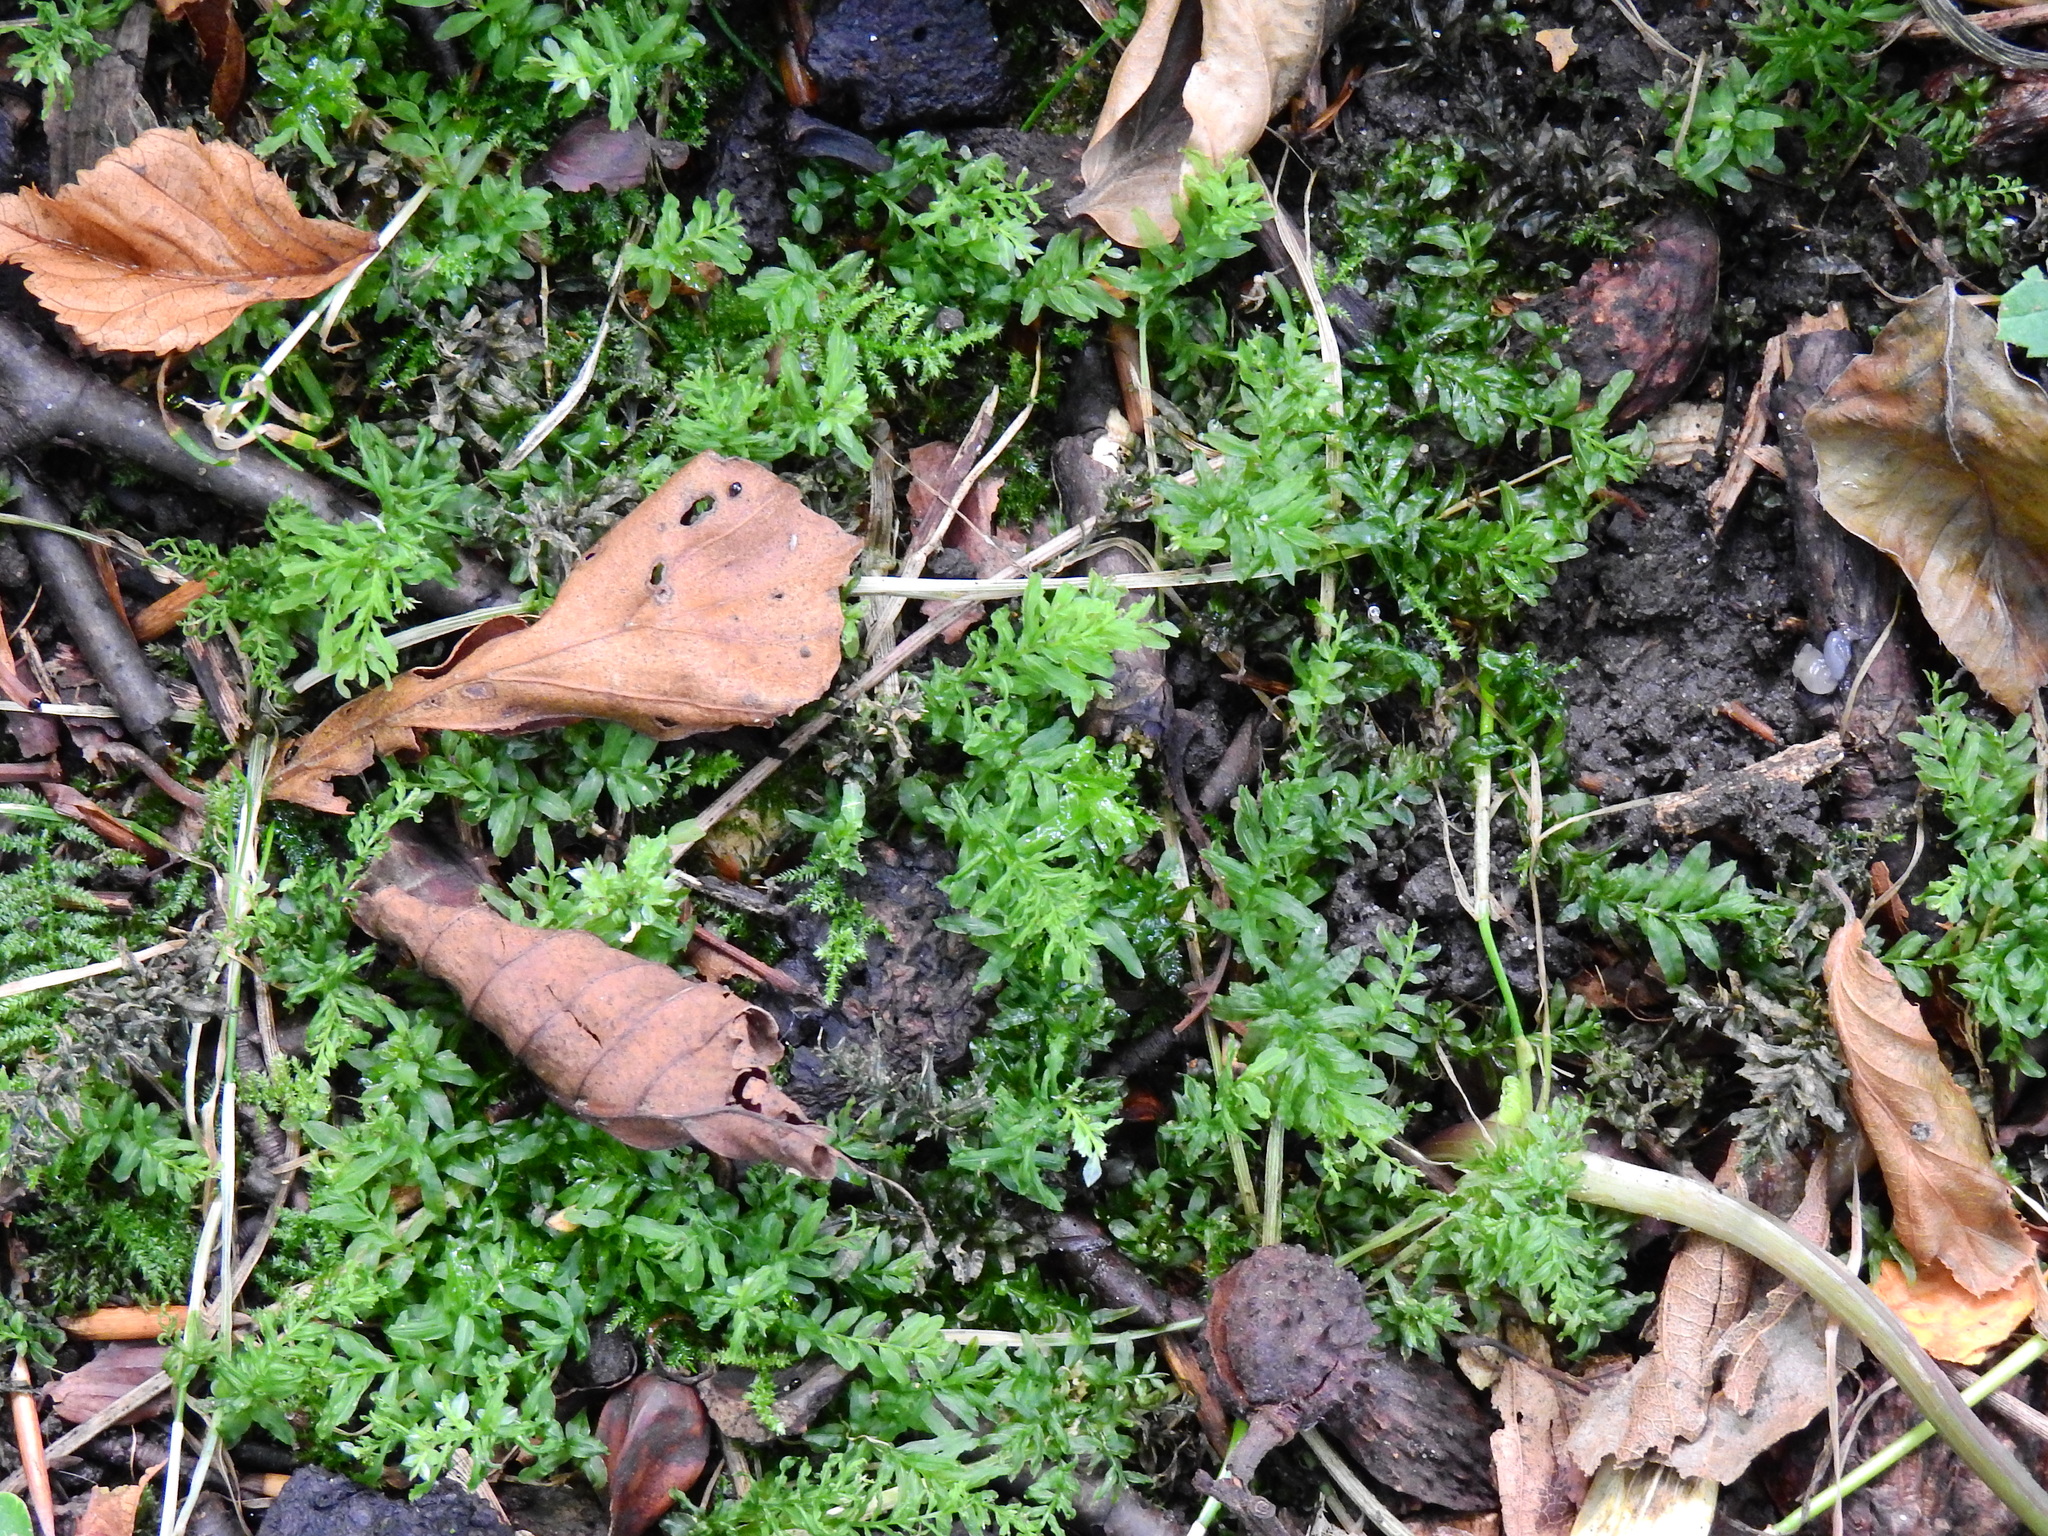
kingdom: Plantae
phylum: Bryophyta
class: Bryopsida
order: Bryales
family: Mniaceae
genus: Plagiomnium
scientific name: Plagiomnium undulatum
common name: Hart's-tongue thyme-moss
